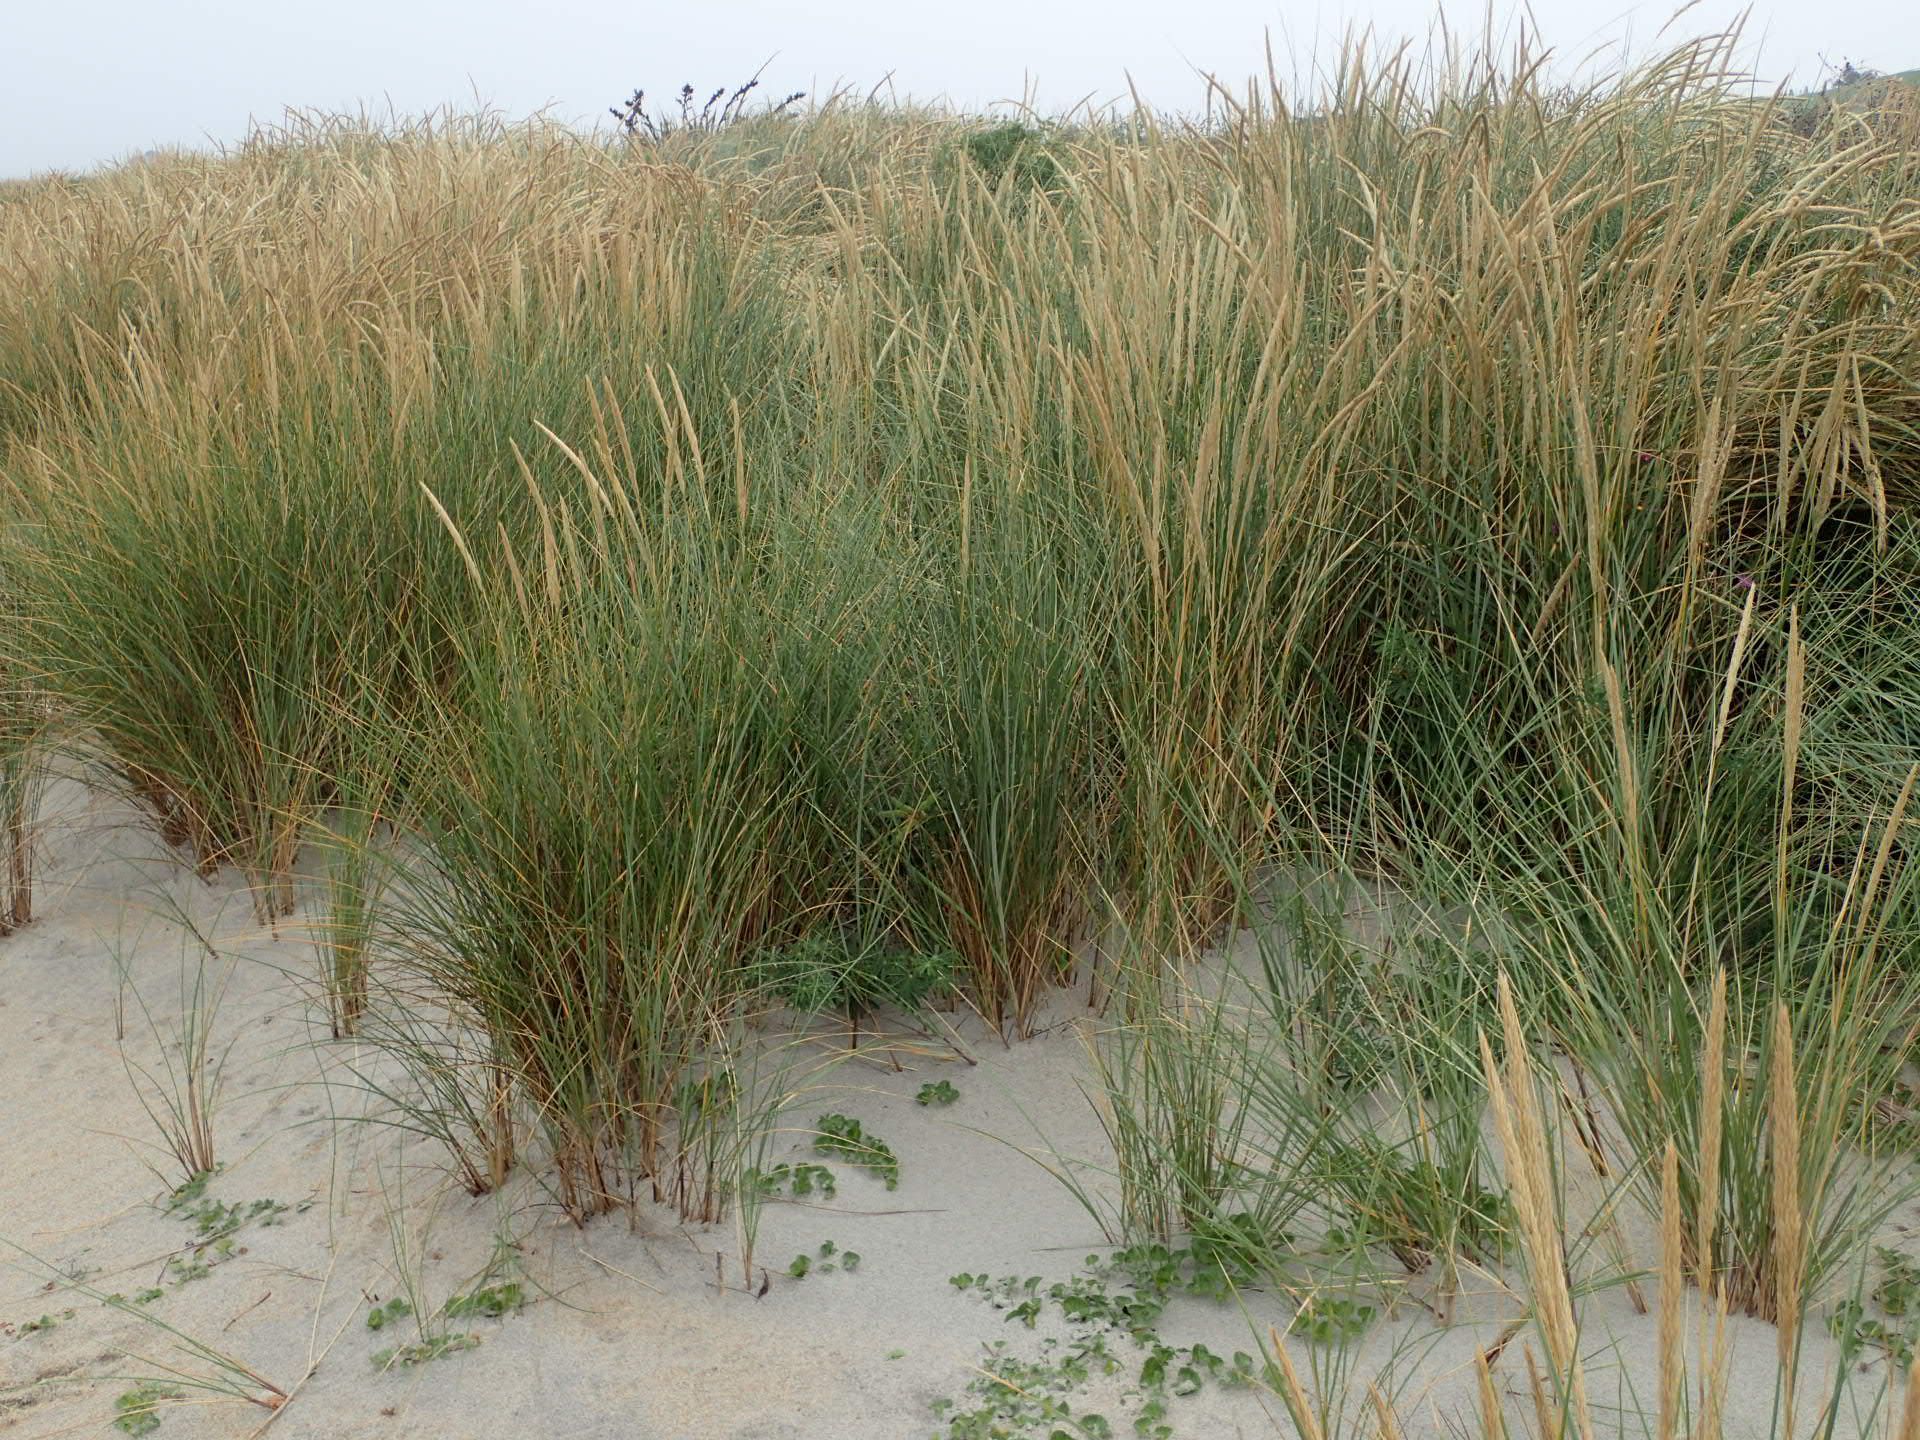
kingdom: Plantae
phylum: Tracheophyta
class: Liliopsida
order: Poales
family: Poaceae
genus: Calamagrostis
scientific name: Calamagrostis arenaria
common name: European beachgrass
